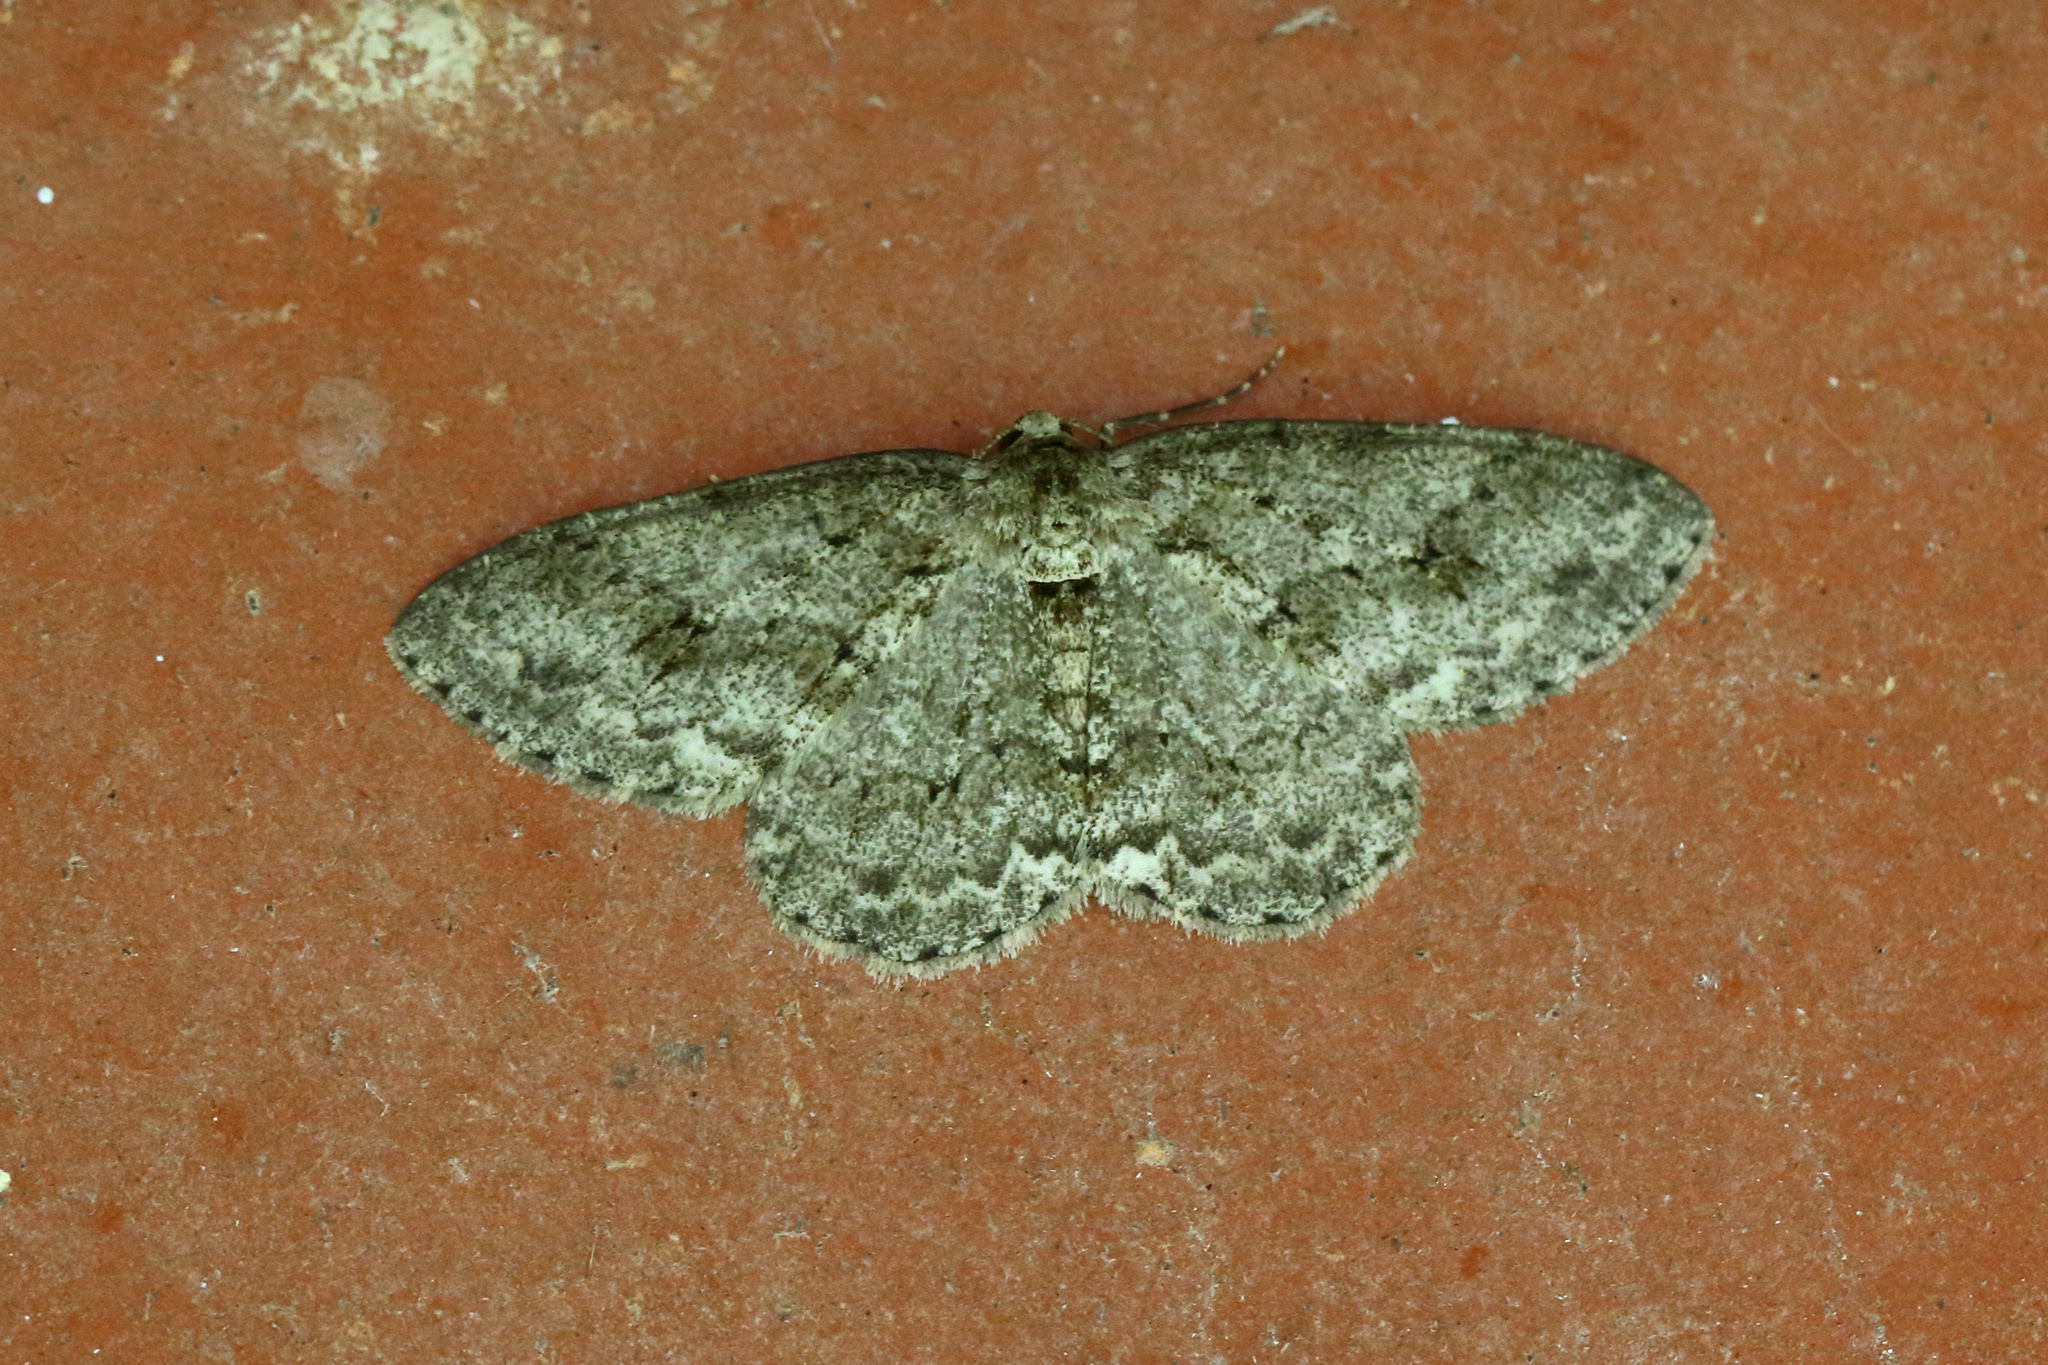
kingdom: Animalia
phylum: Arthropoda
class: Insecta
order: Lepidoptera
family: Geometridae
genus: Ectropis
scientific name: Ectropis crepuscularia
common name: Engrailed
